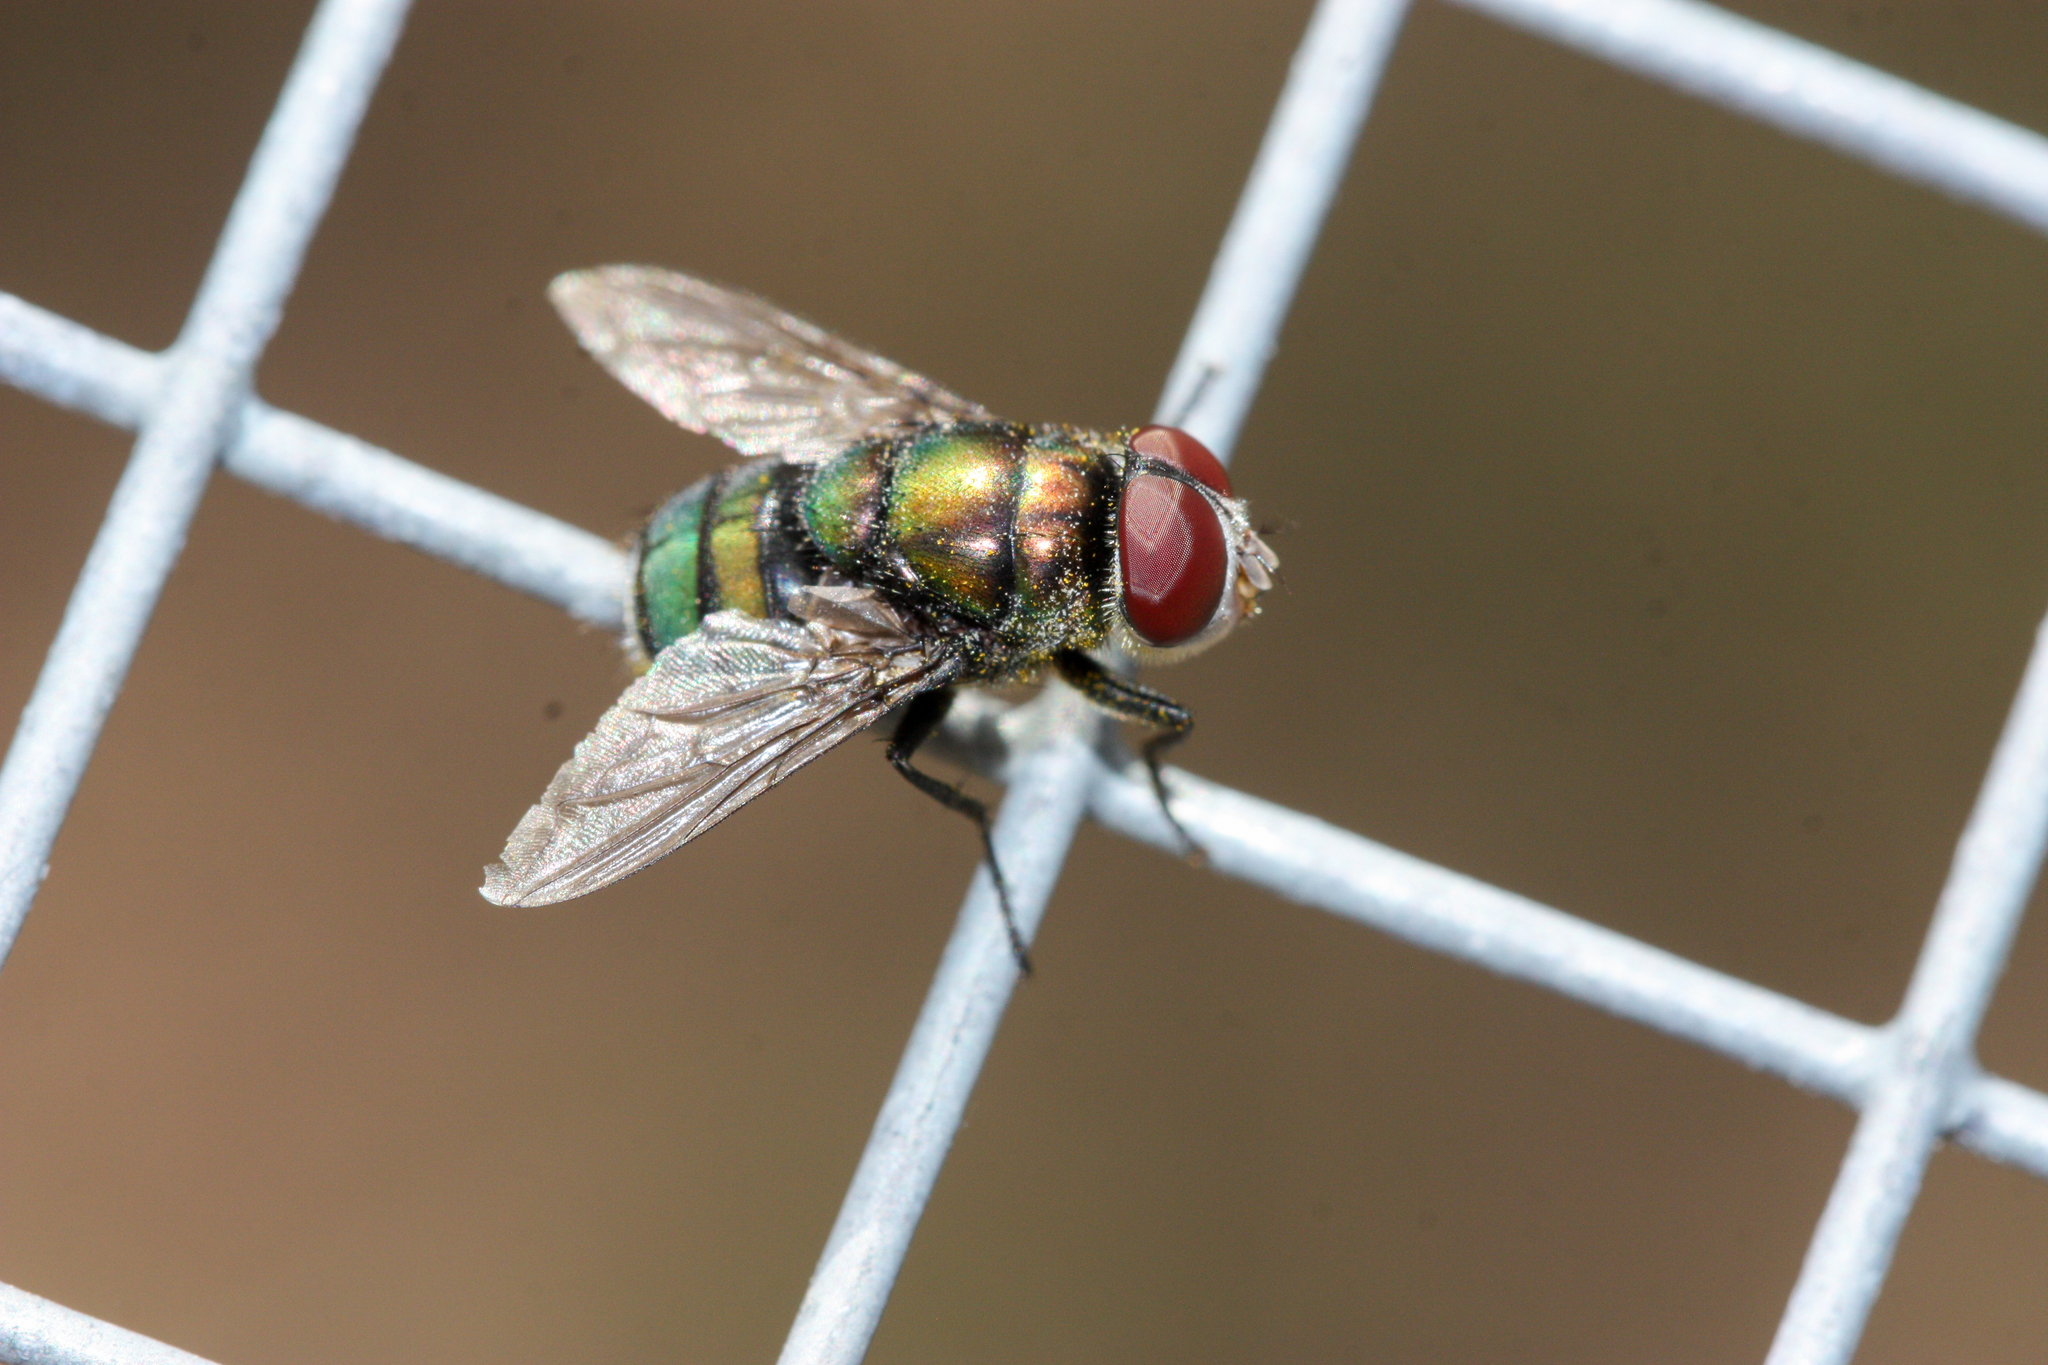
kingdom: Animalia
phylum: Arthropoda
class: Insecta
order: Diptera
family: Calliphoridae
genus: Chrysomya
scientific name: Chrysomya rufifacies
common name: Blow fly
